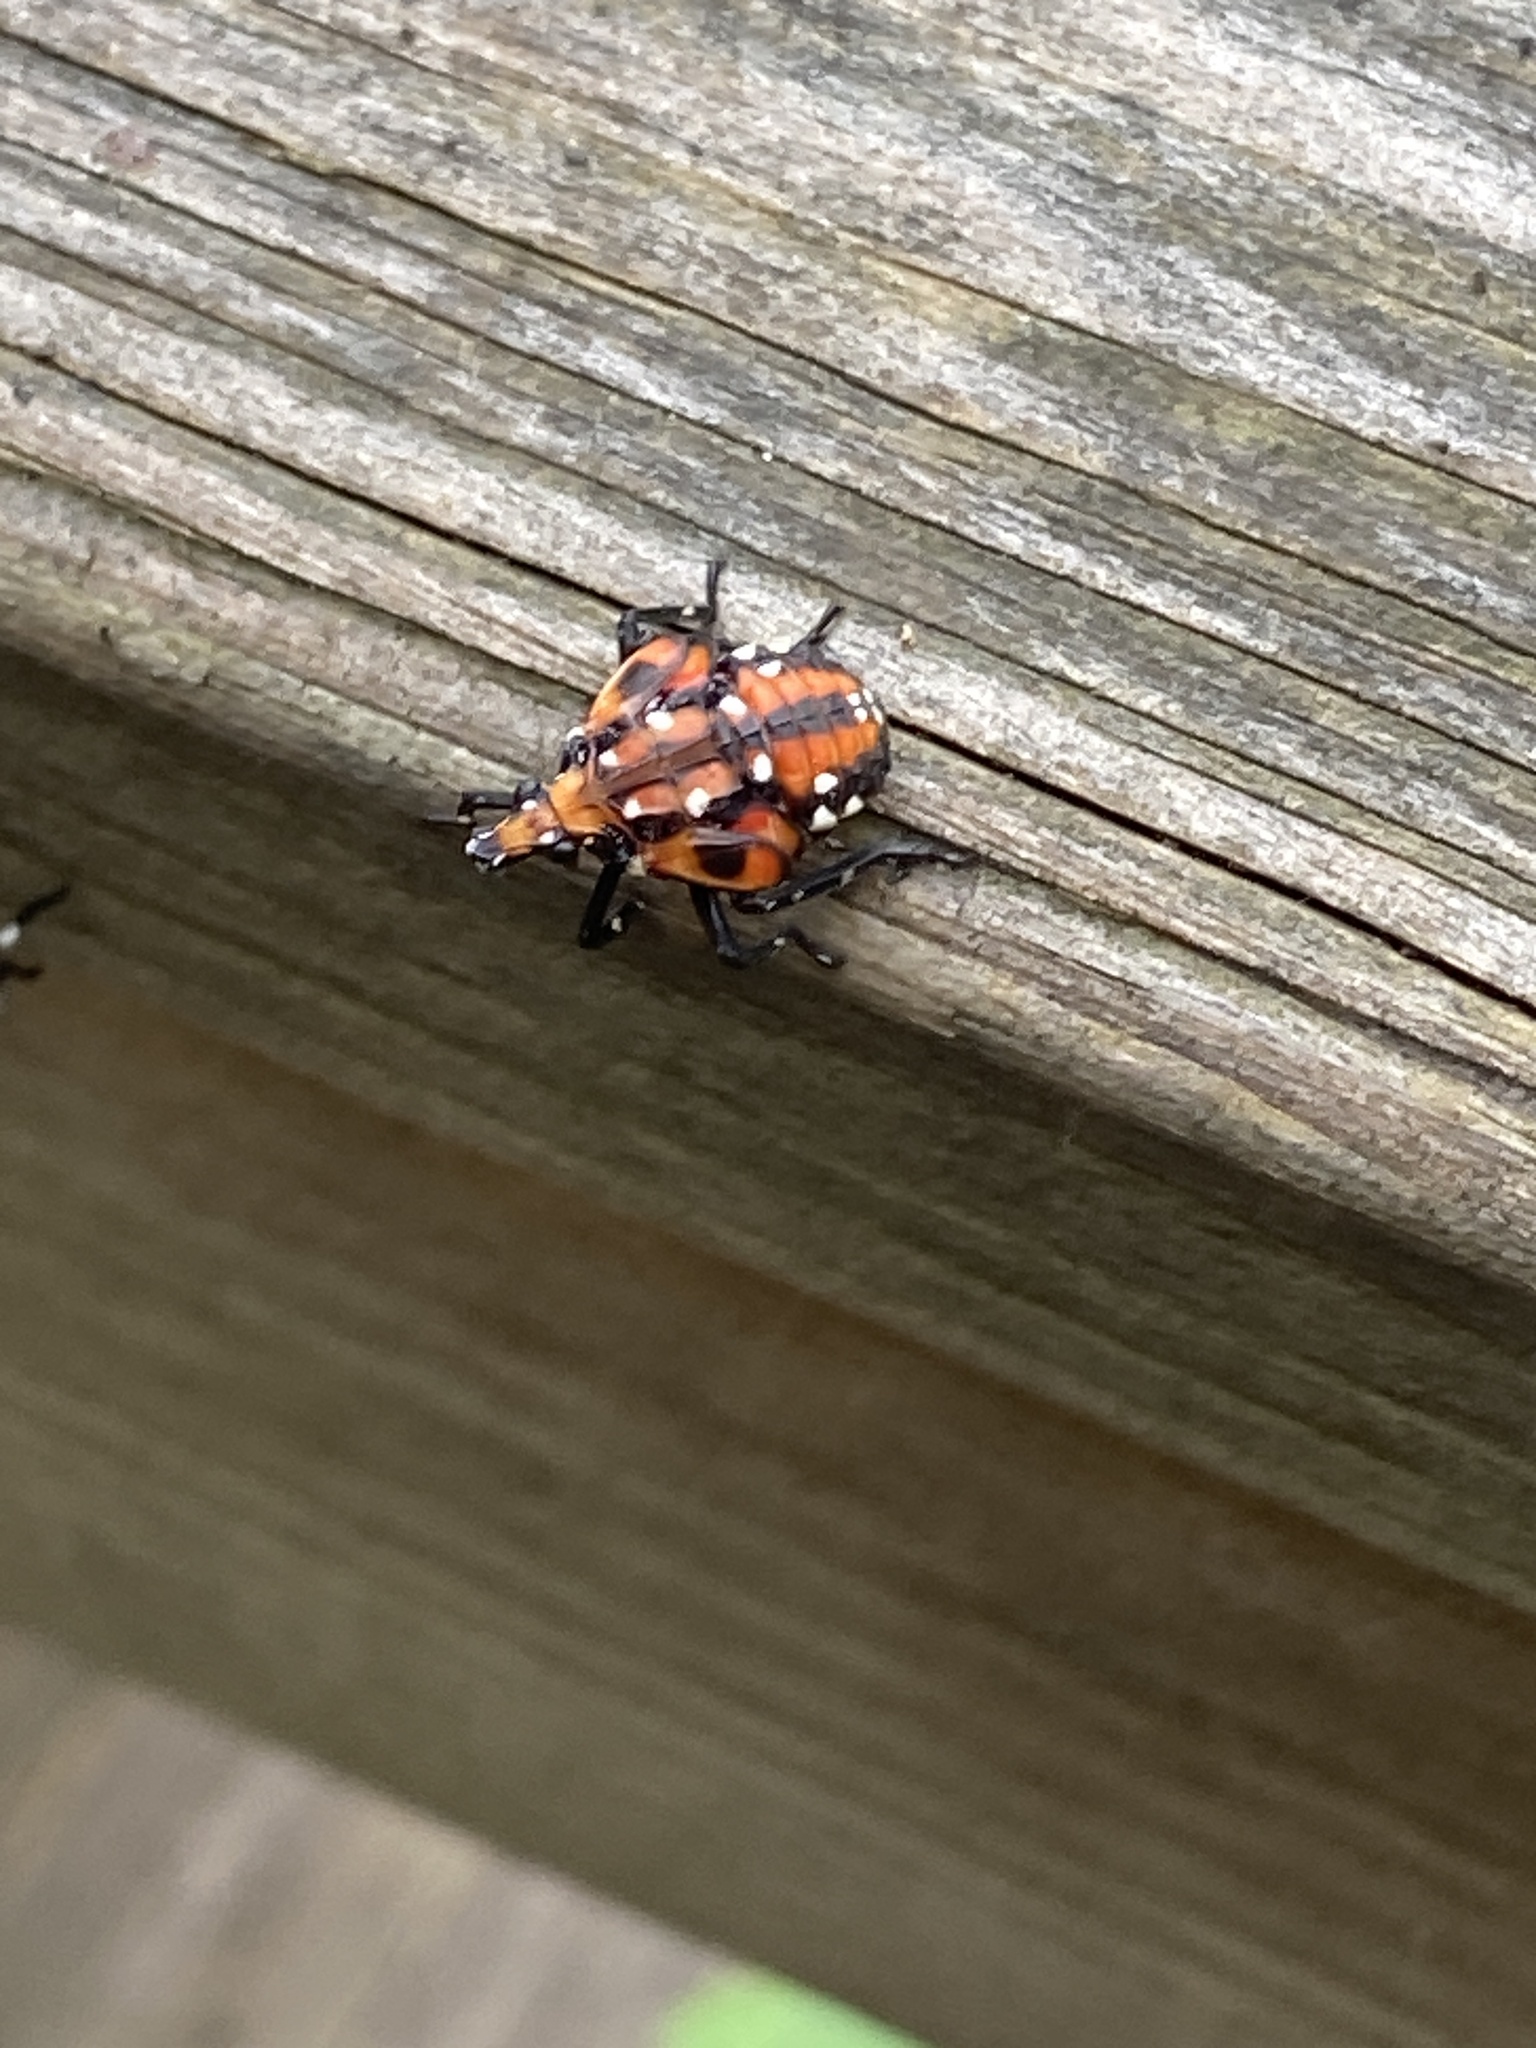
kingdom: Animalia
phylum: Arthropoda
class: Insecta
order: Hemiptera
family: Fulgoridae
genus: Lycorma
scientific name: Lycorma delicatula
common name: Spotted lanternfly
